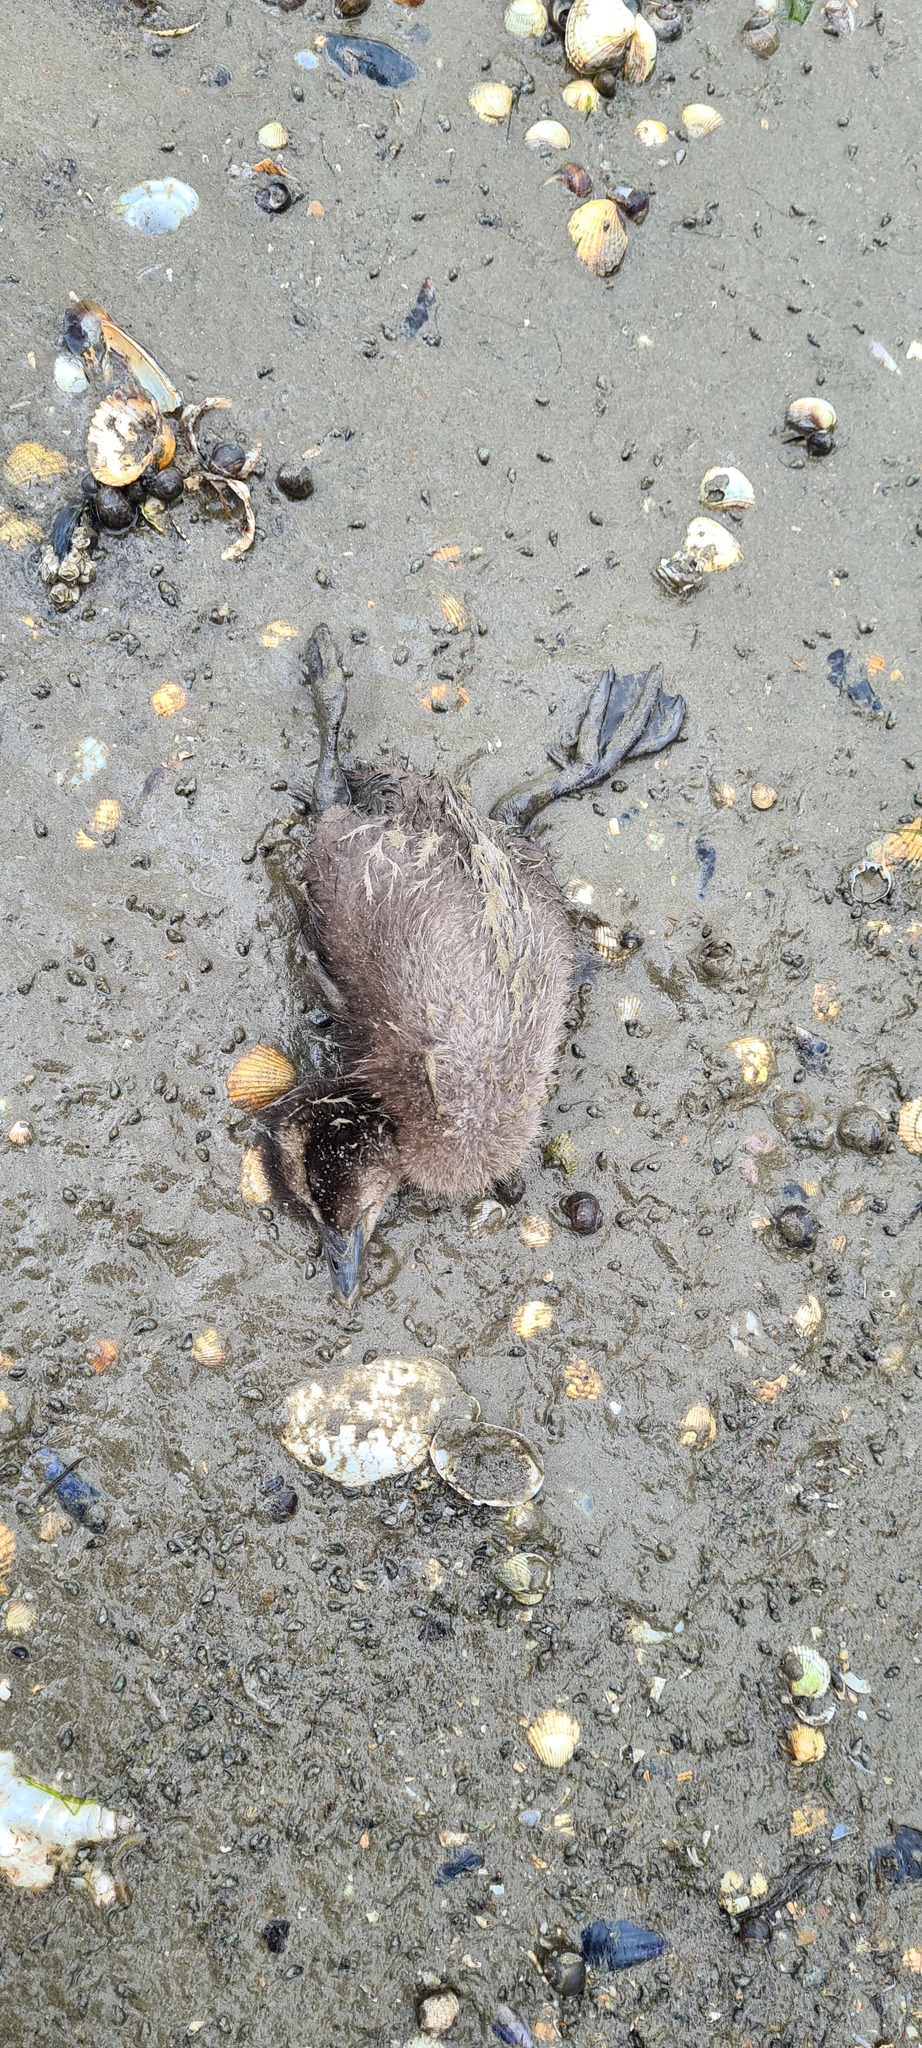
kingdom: Animalia
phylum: Chordata
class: Aves
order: Anseriformes
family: Anatidae
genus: Somateria
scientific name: Somateria mollissima
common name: Common eider
